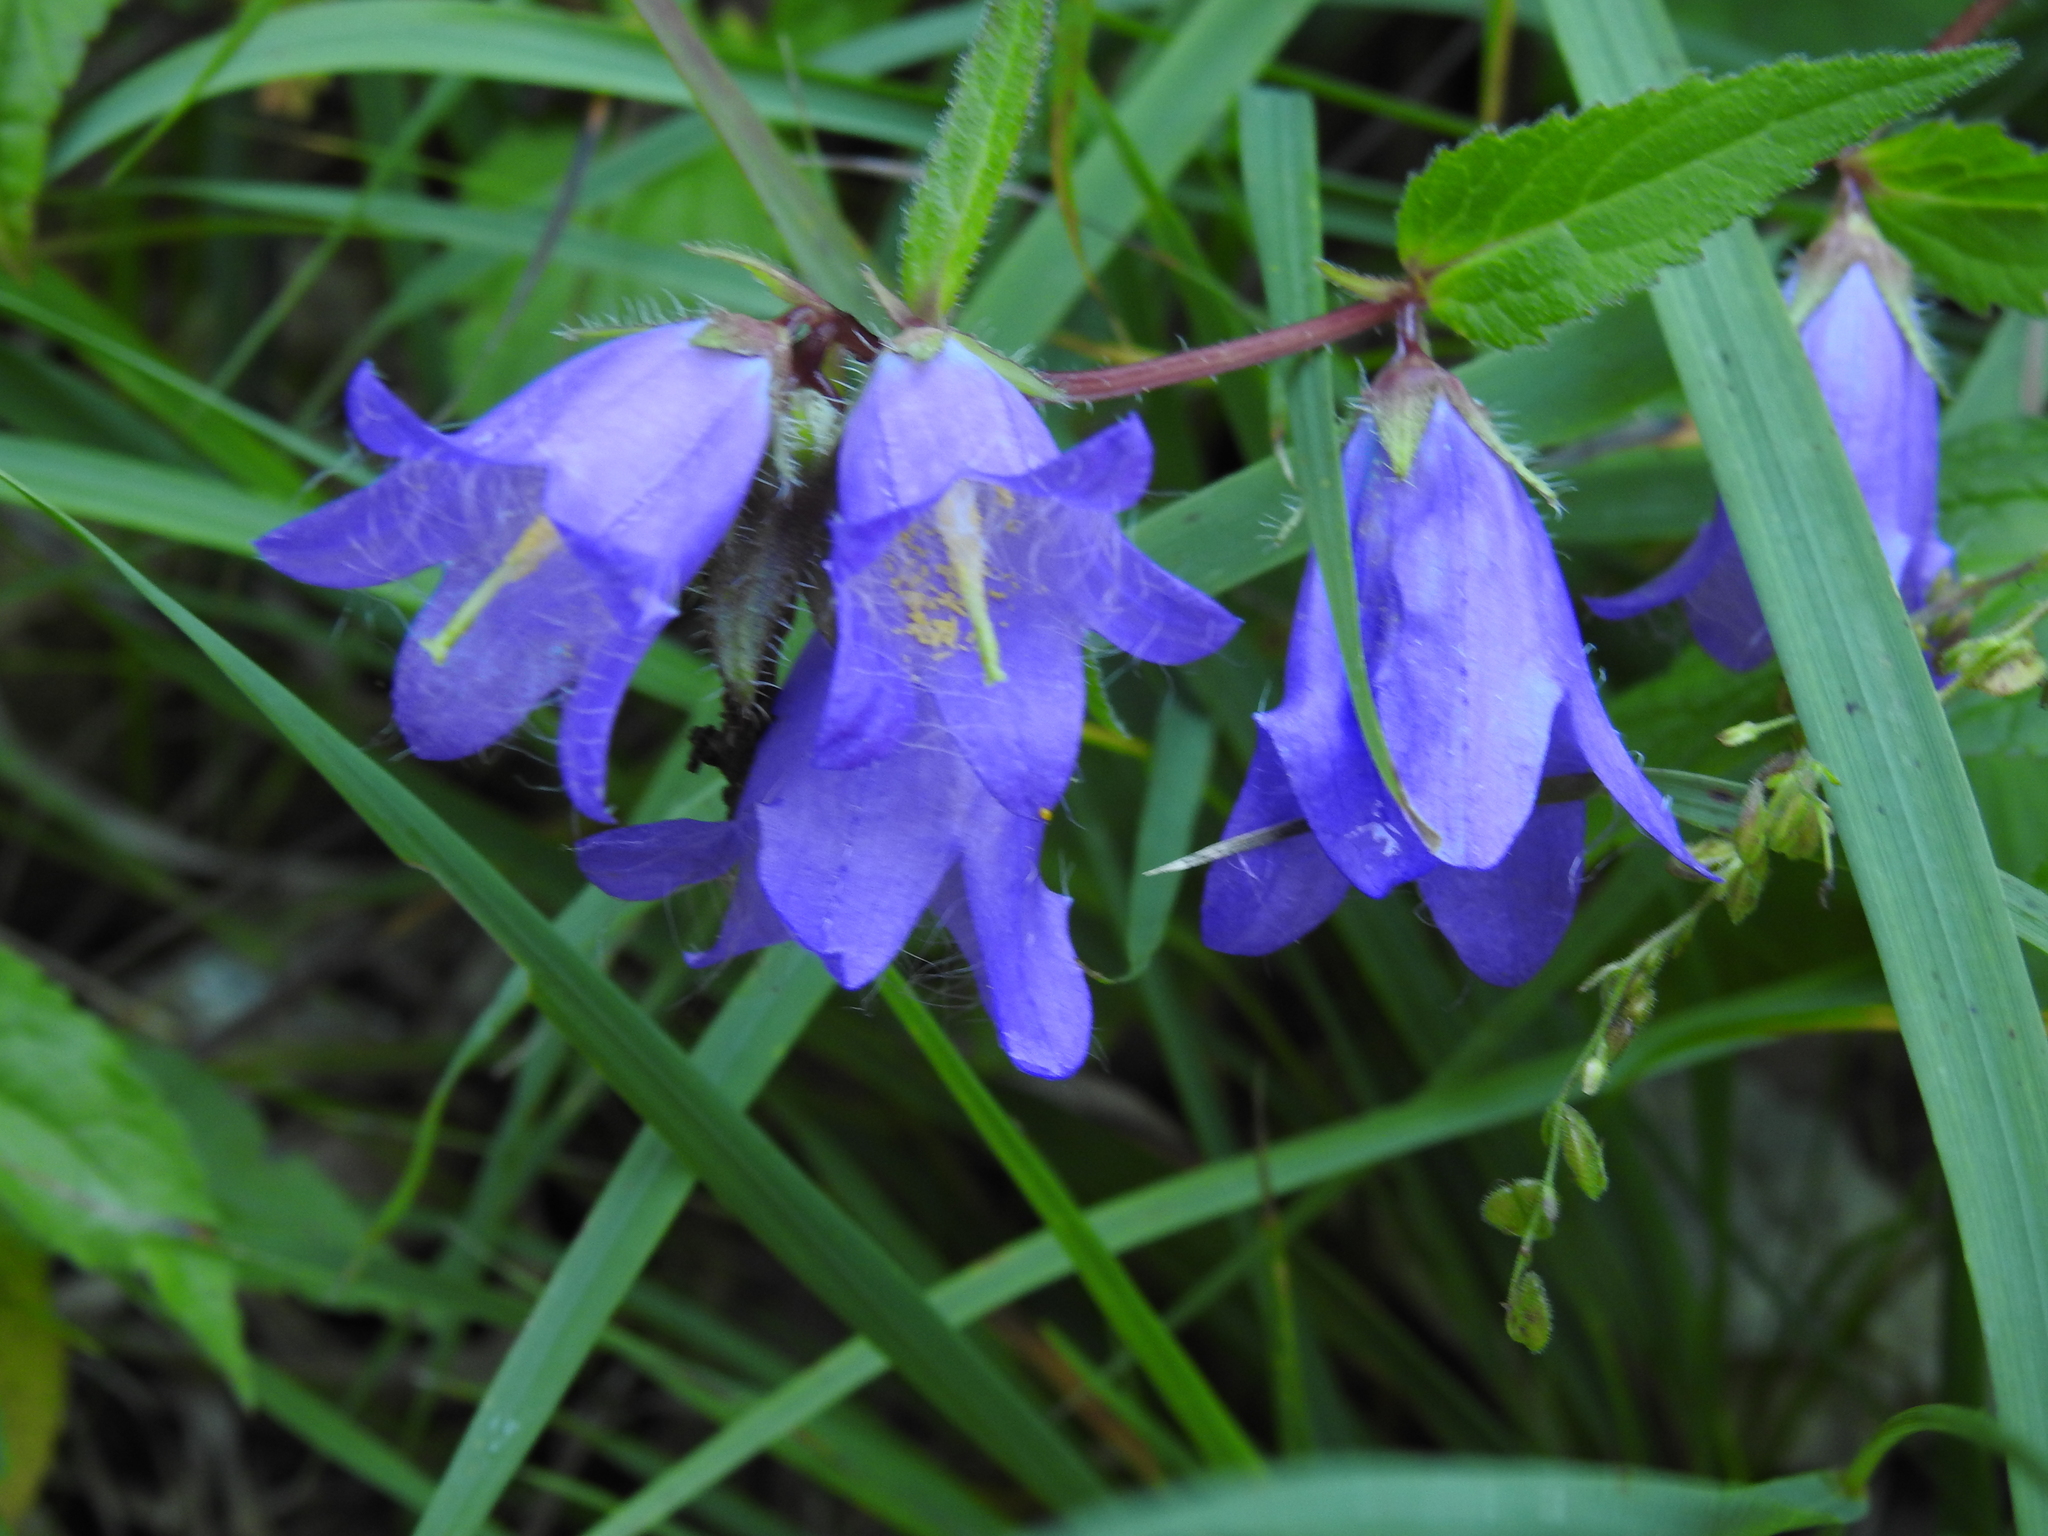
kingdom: Plantae
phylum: Tracheophyta
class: Magnoliopsida
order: Asterales
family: Campanulaceae
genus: Campanula
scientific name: Campanula trachelium
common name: Nettle-leaved bellflower
